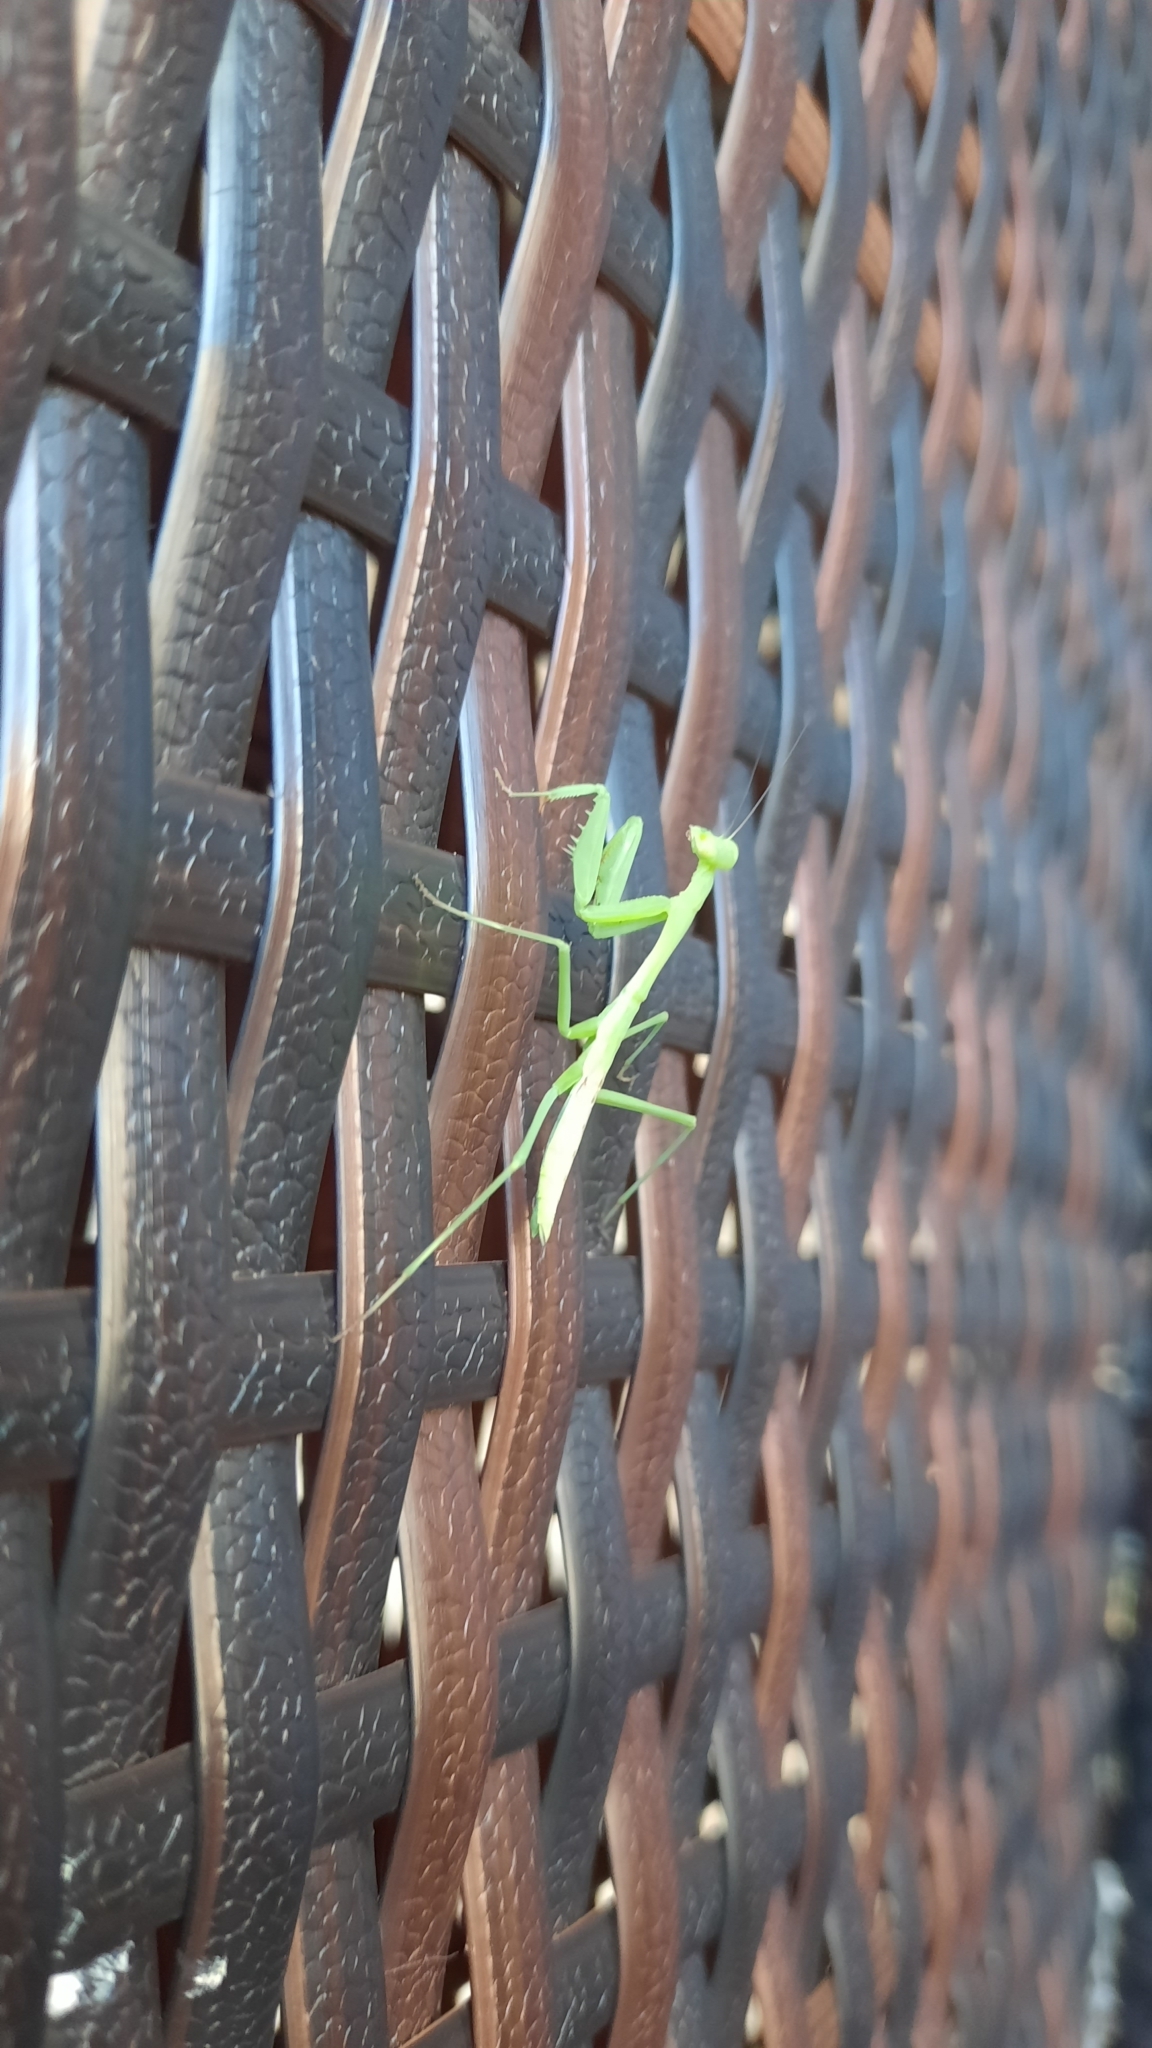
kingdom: Animalia
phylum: Arthropoda
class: Insecta
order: Mantodea
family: Miomantidae
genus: Miomantis
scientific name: Miomantis caffra
